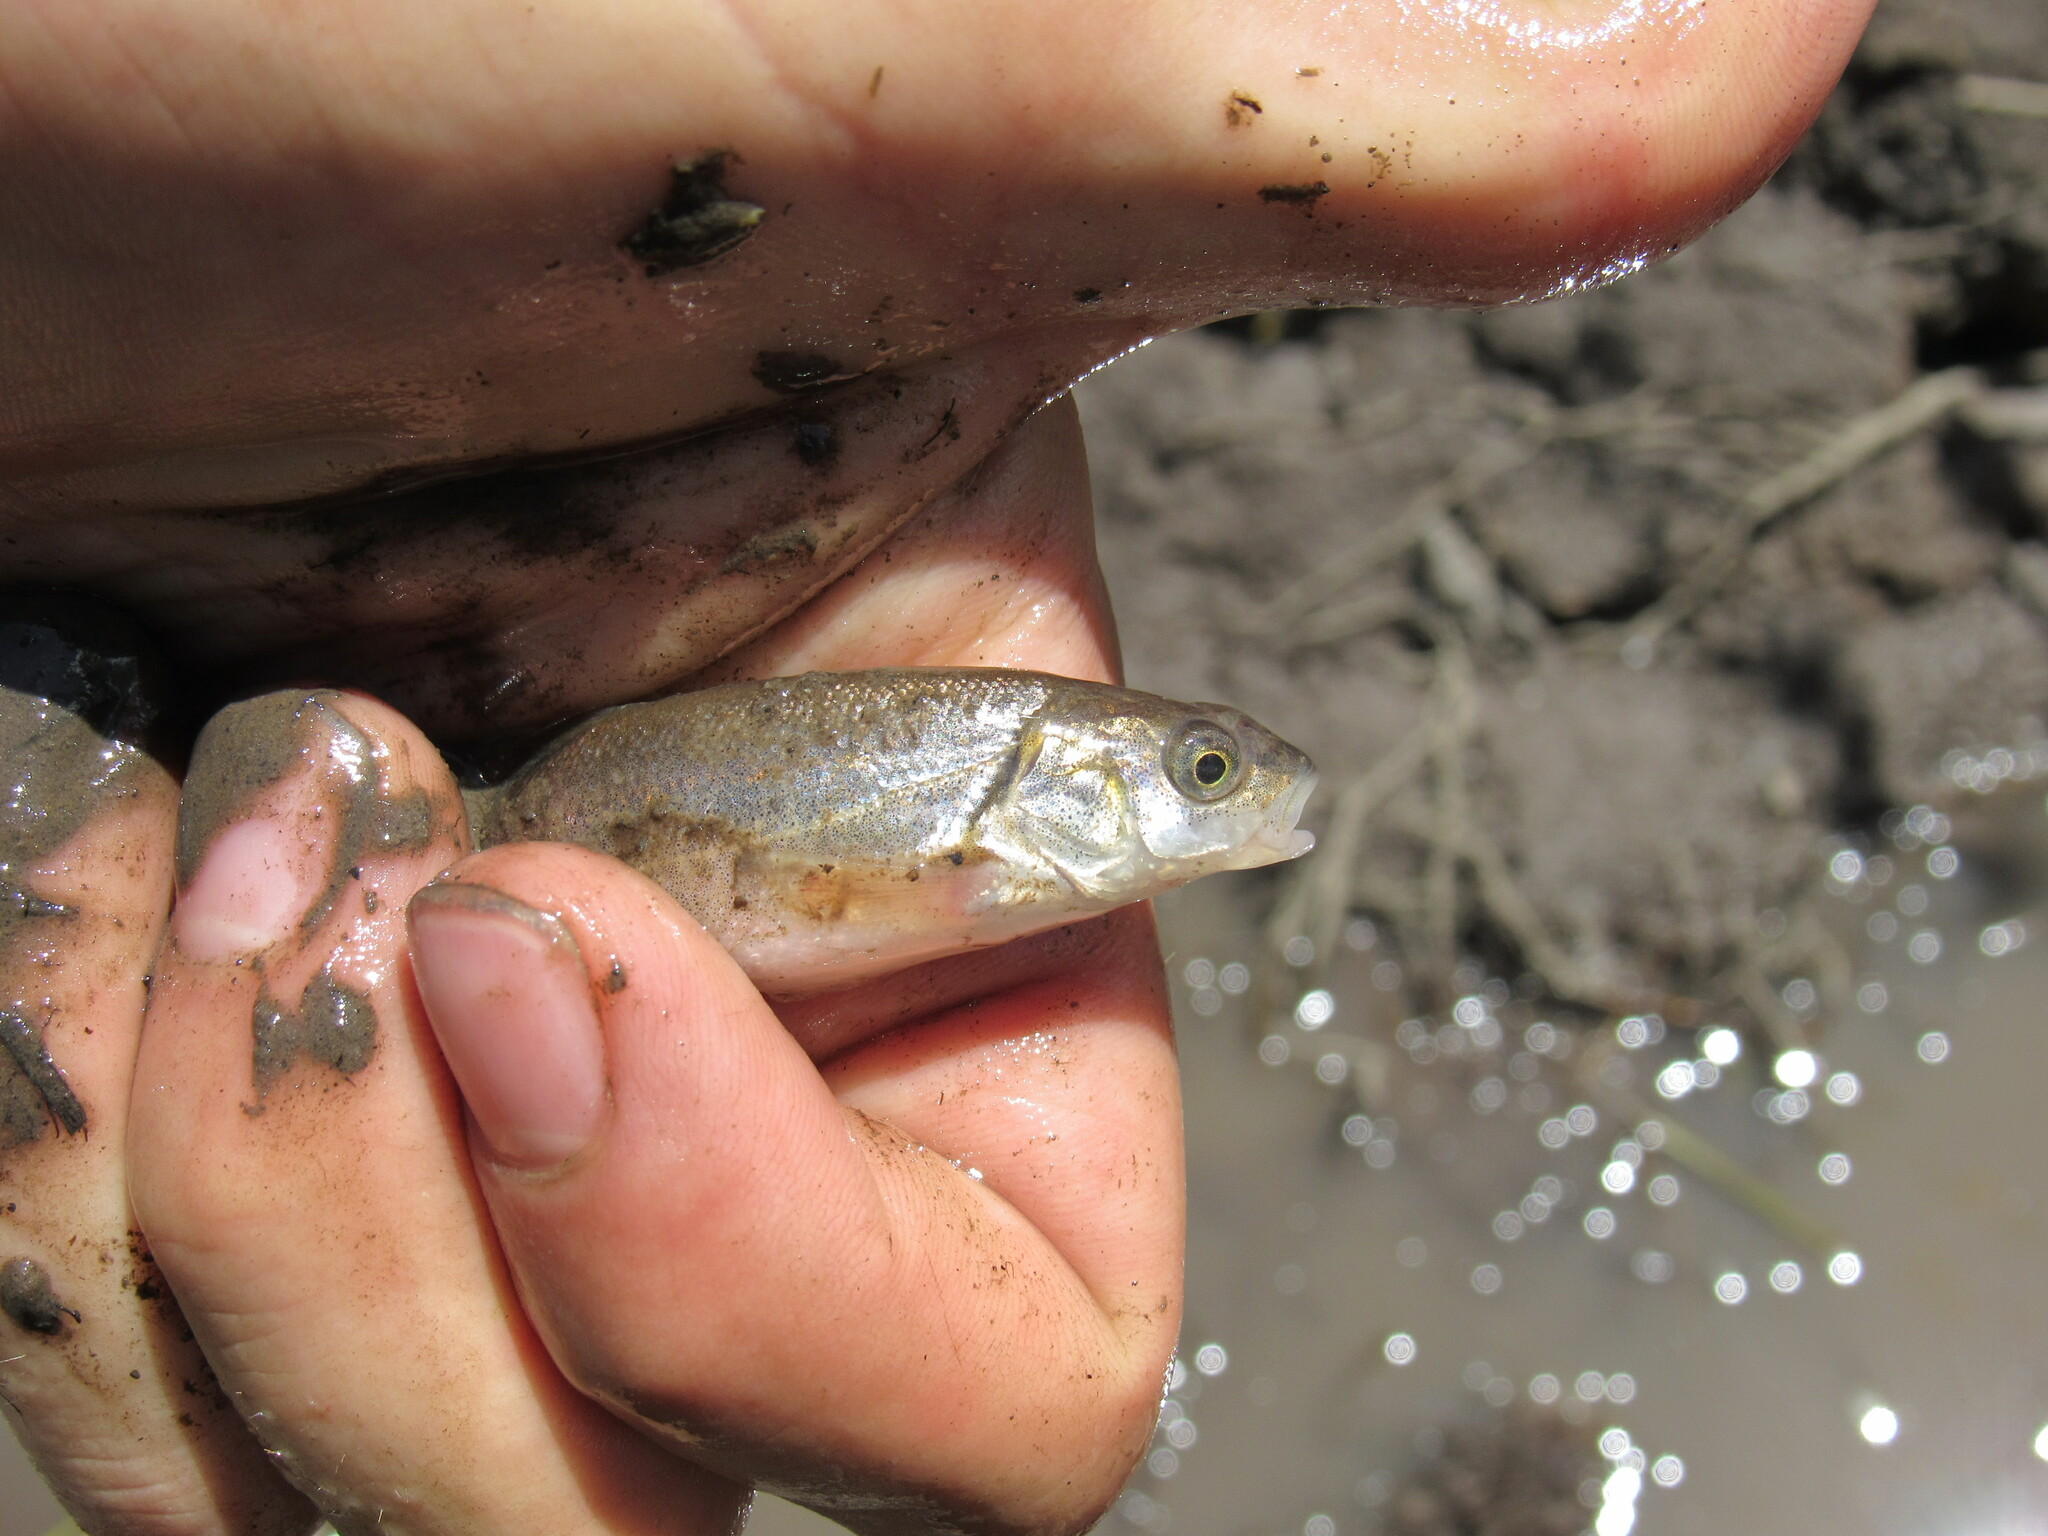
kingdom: Animalia
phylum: Chordata
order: Cypriniformes
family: Catostomidae
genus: Catostomus
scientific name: Catostomus commersonii
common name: White sucker
